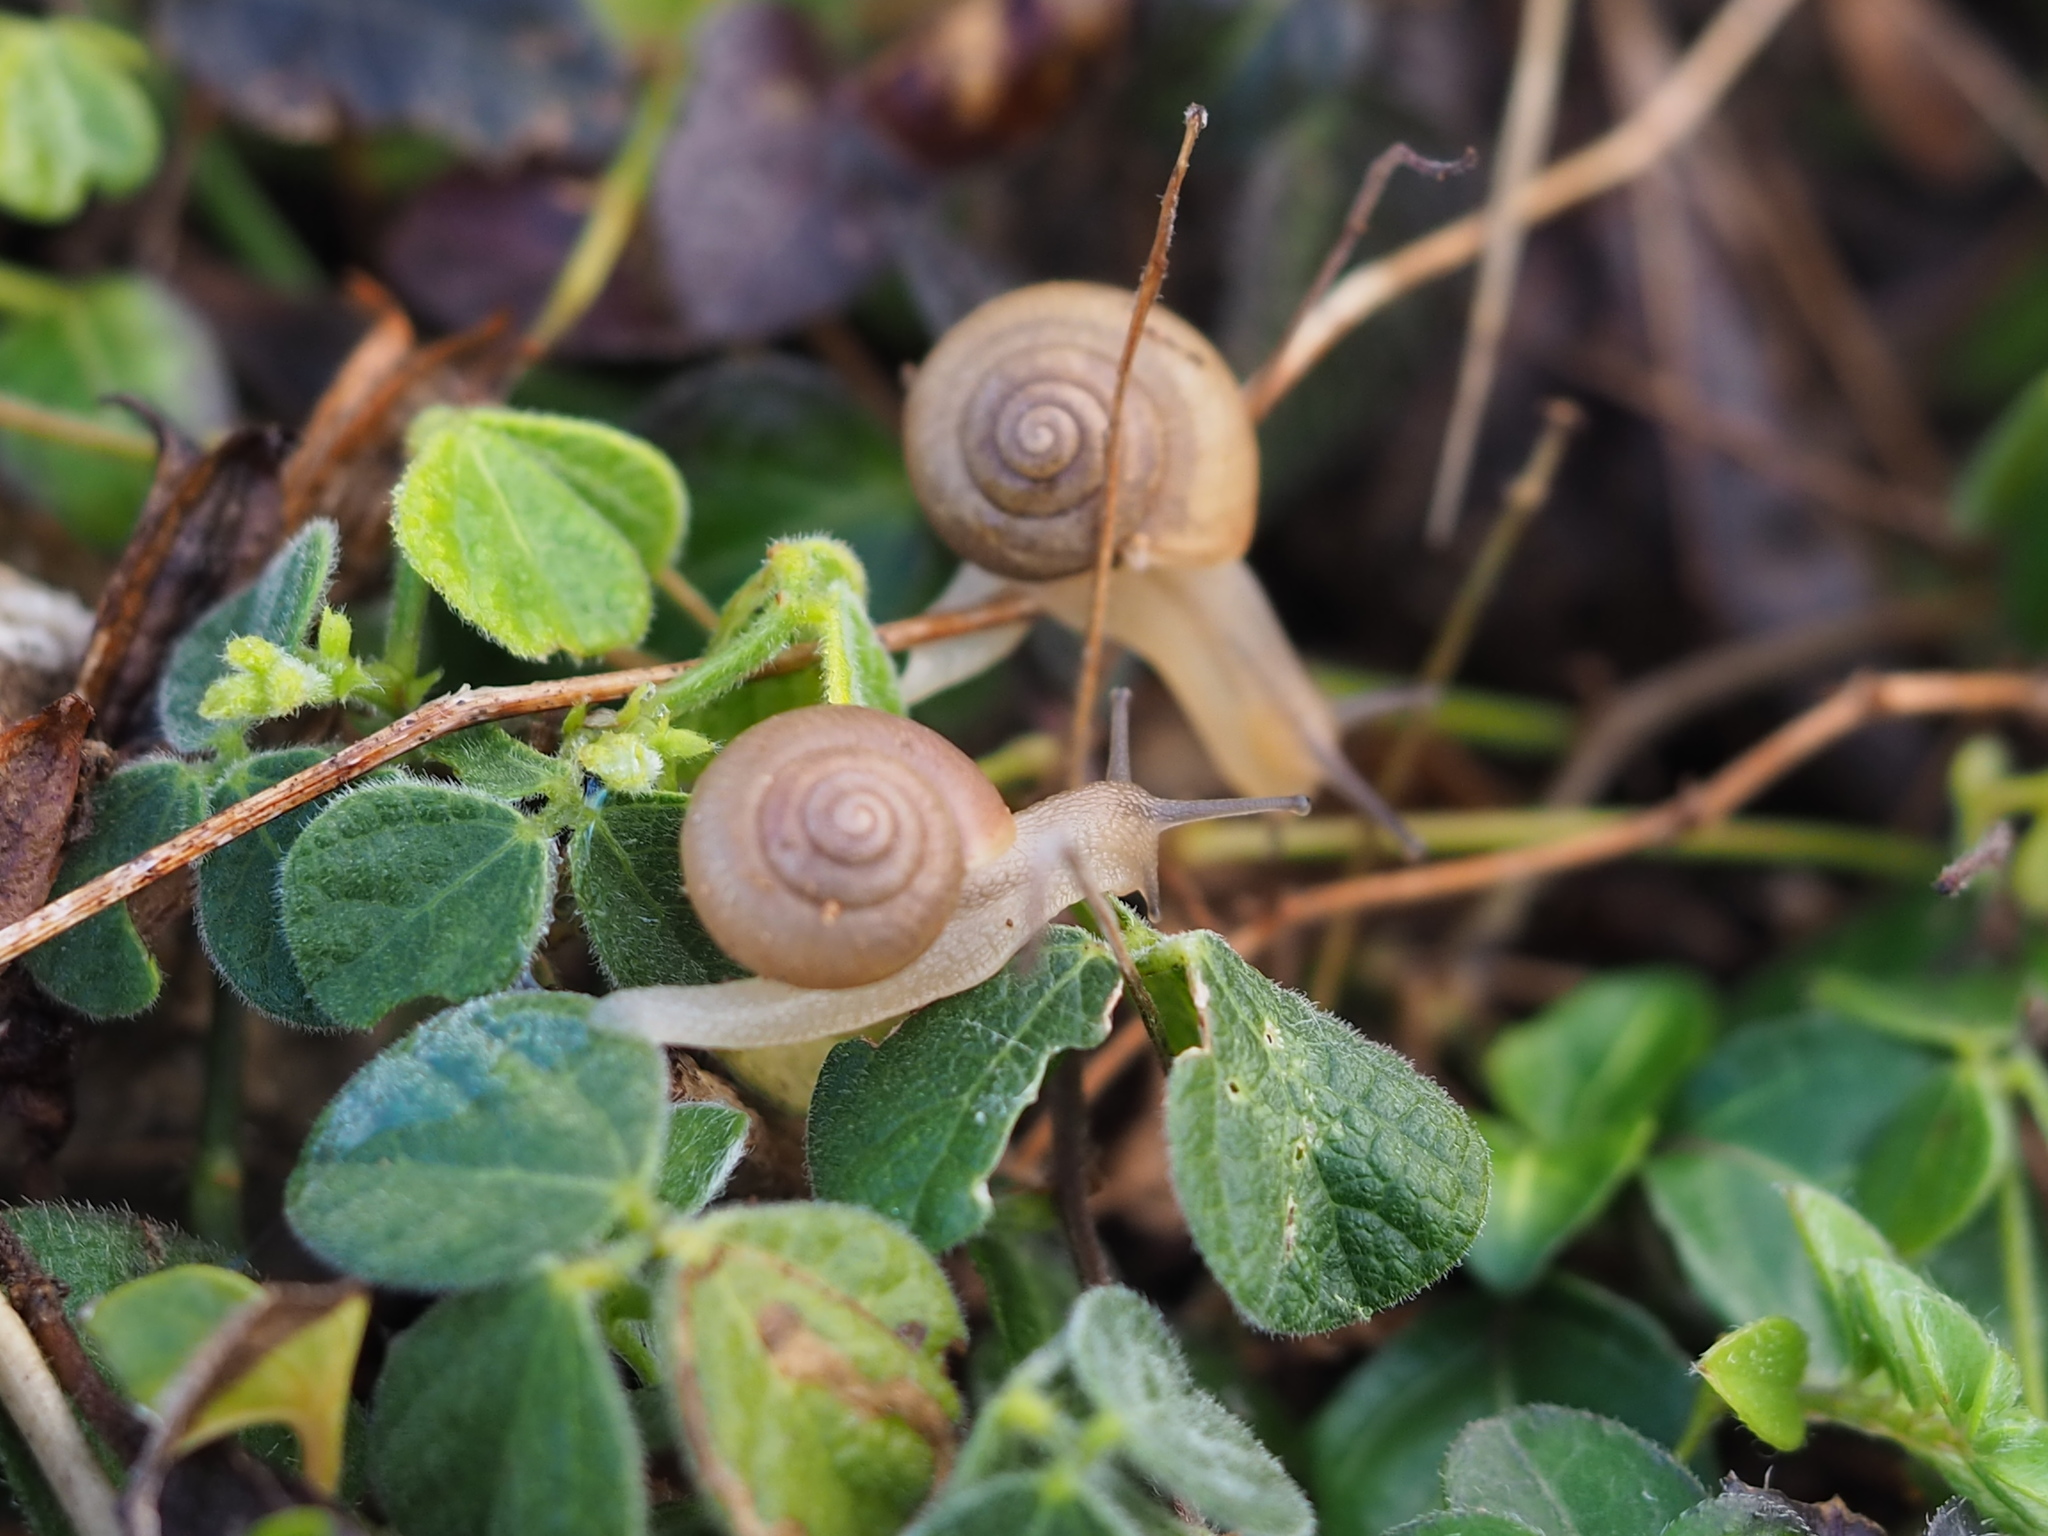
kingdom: Animalia
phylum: Mollusca
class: Gastropoda
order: Stylommatophora
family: Camaenidae
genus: Acusta
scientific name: Acusta toyenmongaiensis
